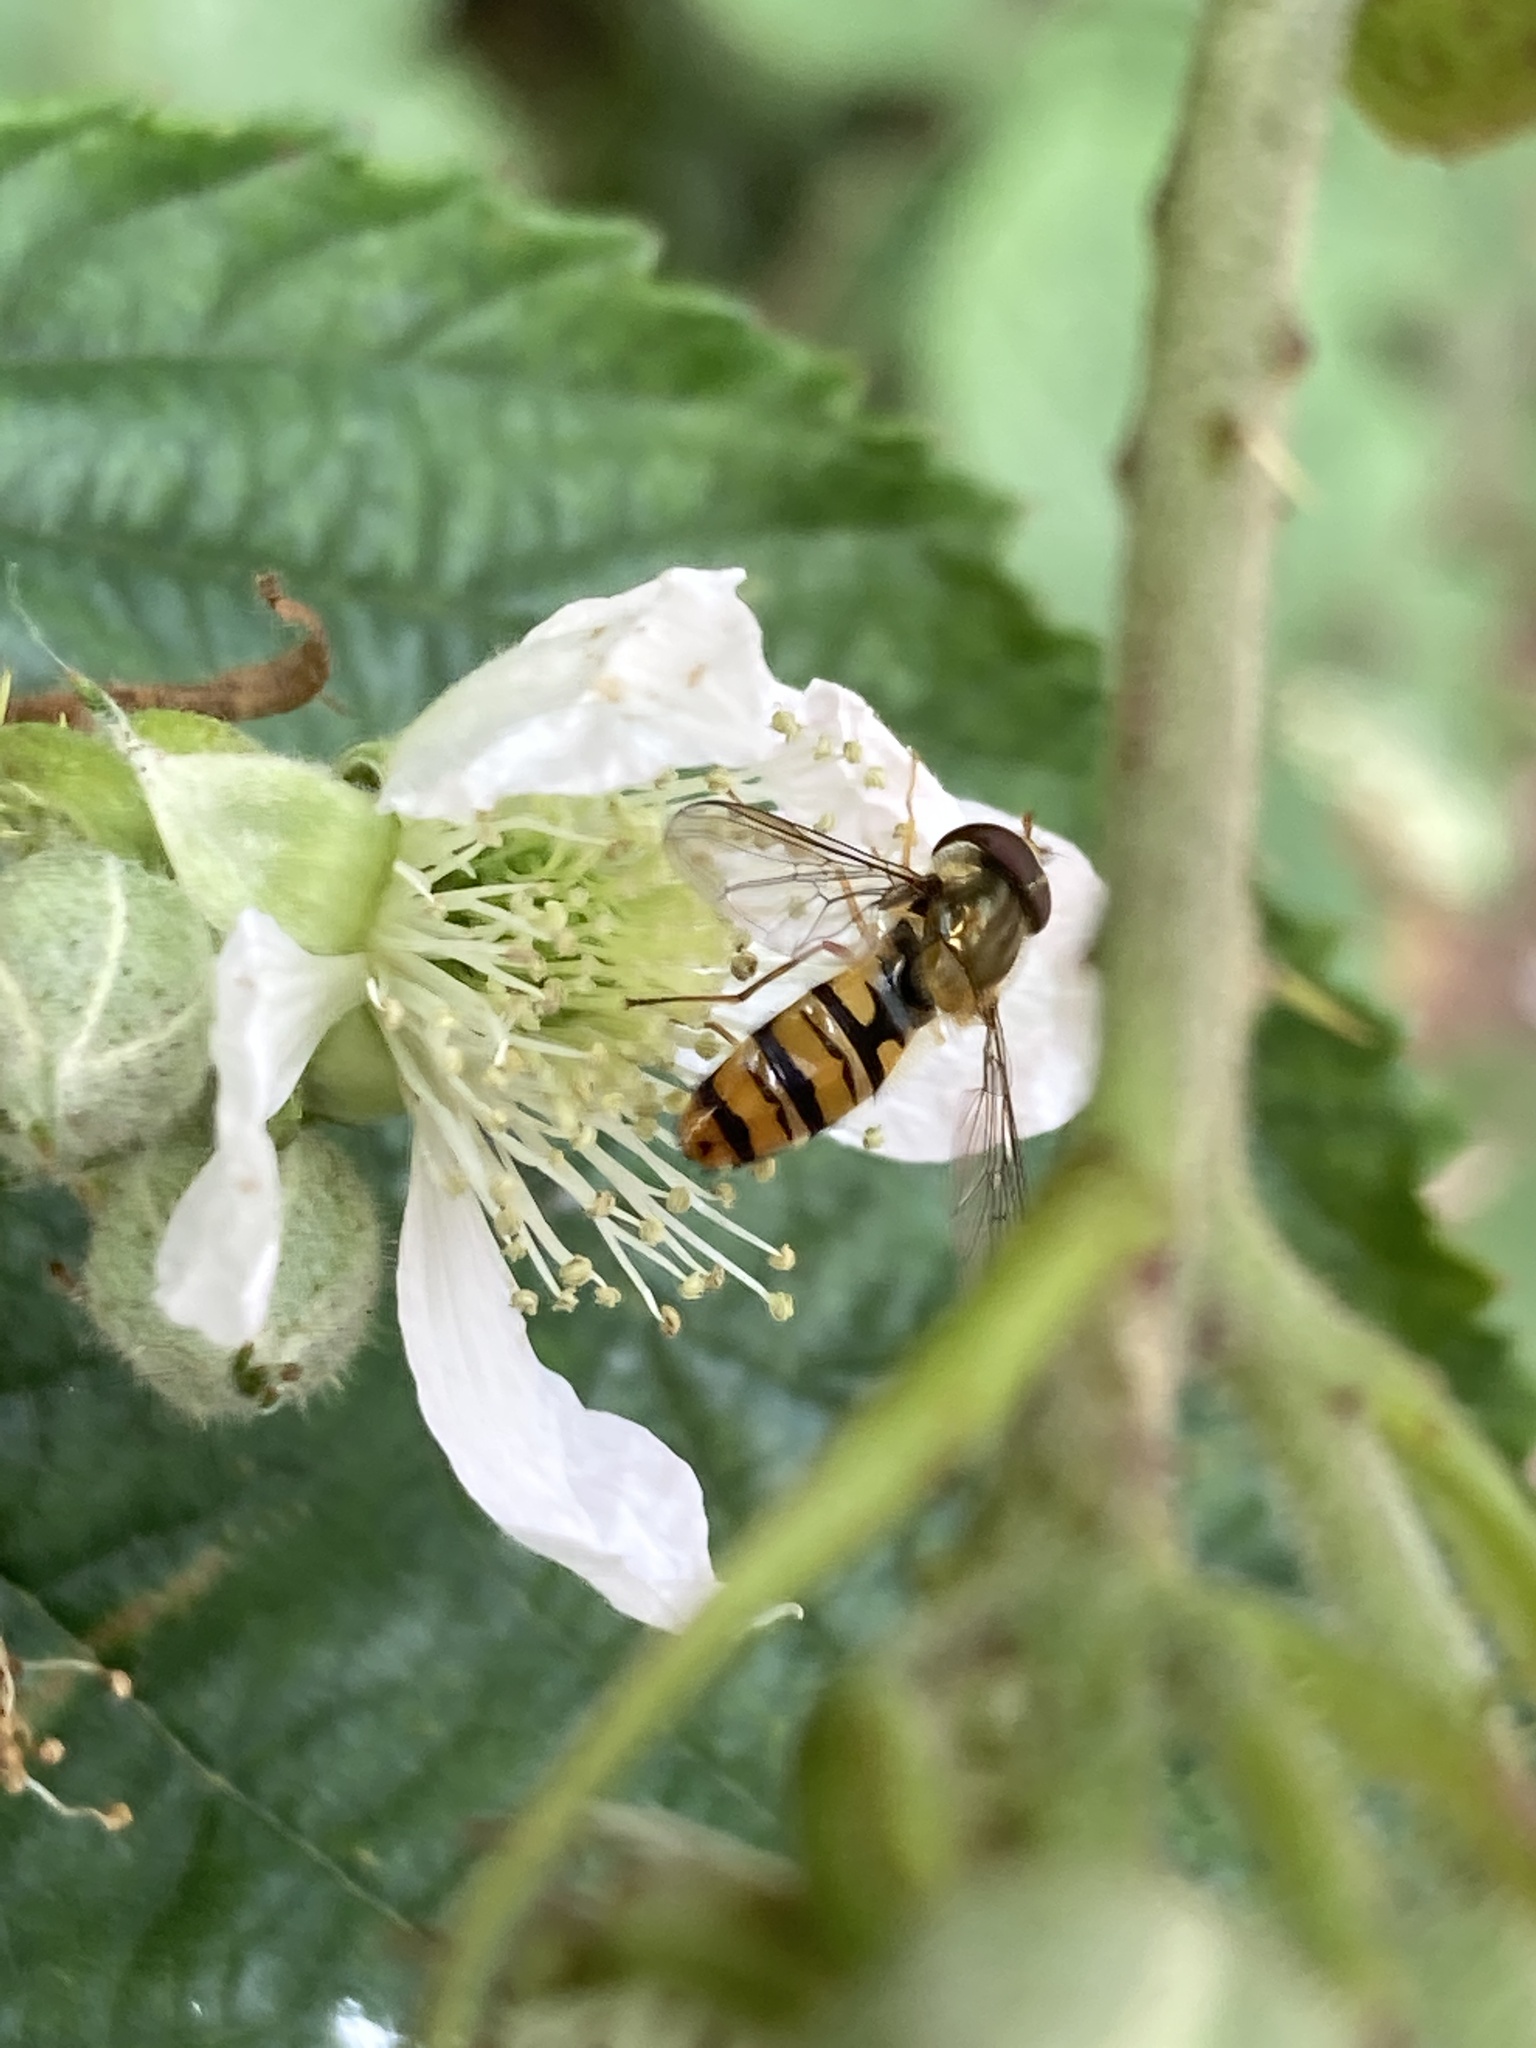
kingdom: Animalia
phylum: Arthropoda
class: Insecta
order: Diptera
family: Syrphidae
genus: Episyrphus
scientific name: Episyrphus balteatus
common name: Marmalade hoverfly
